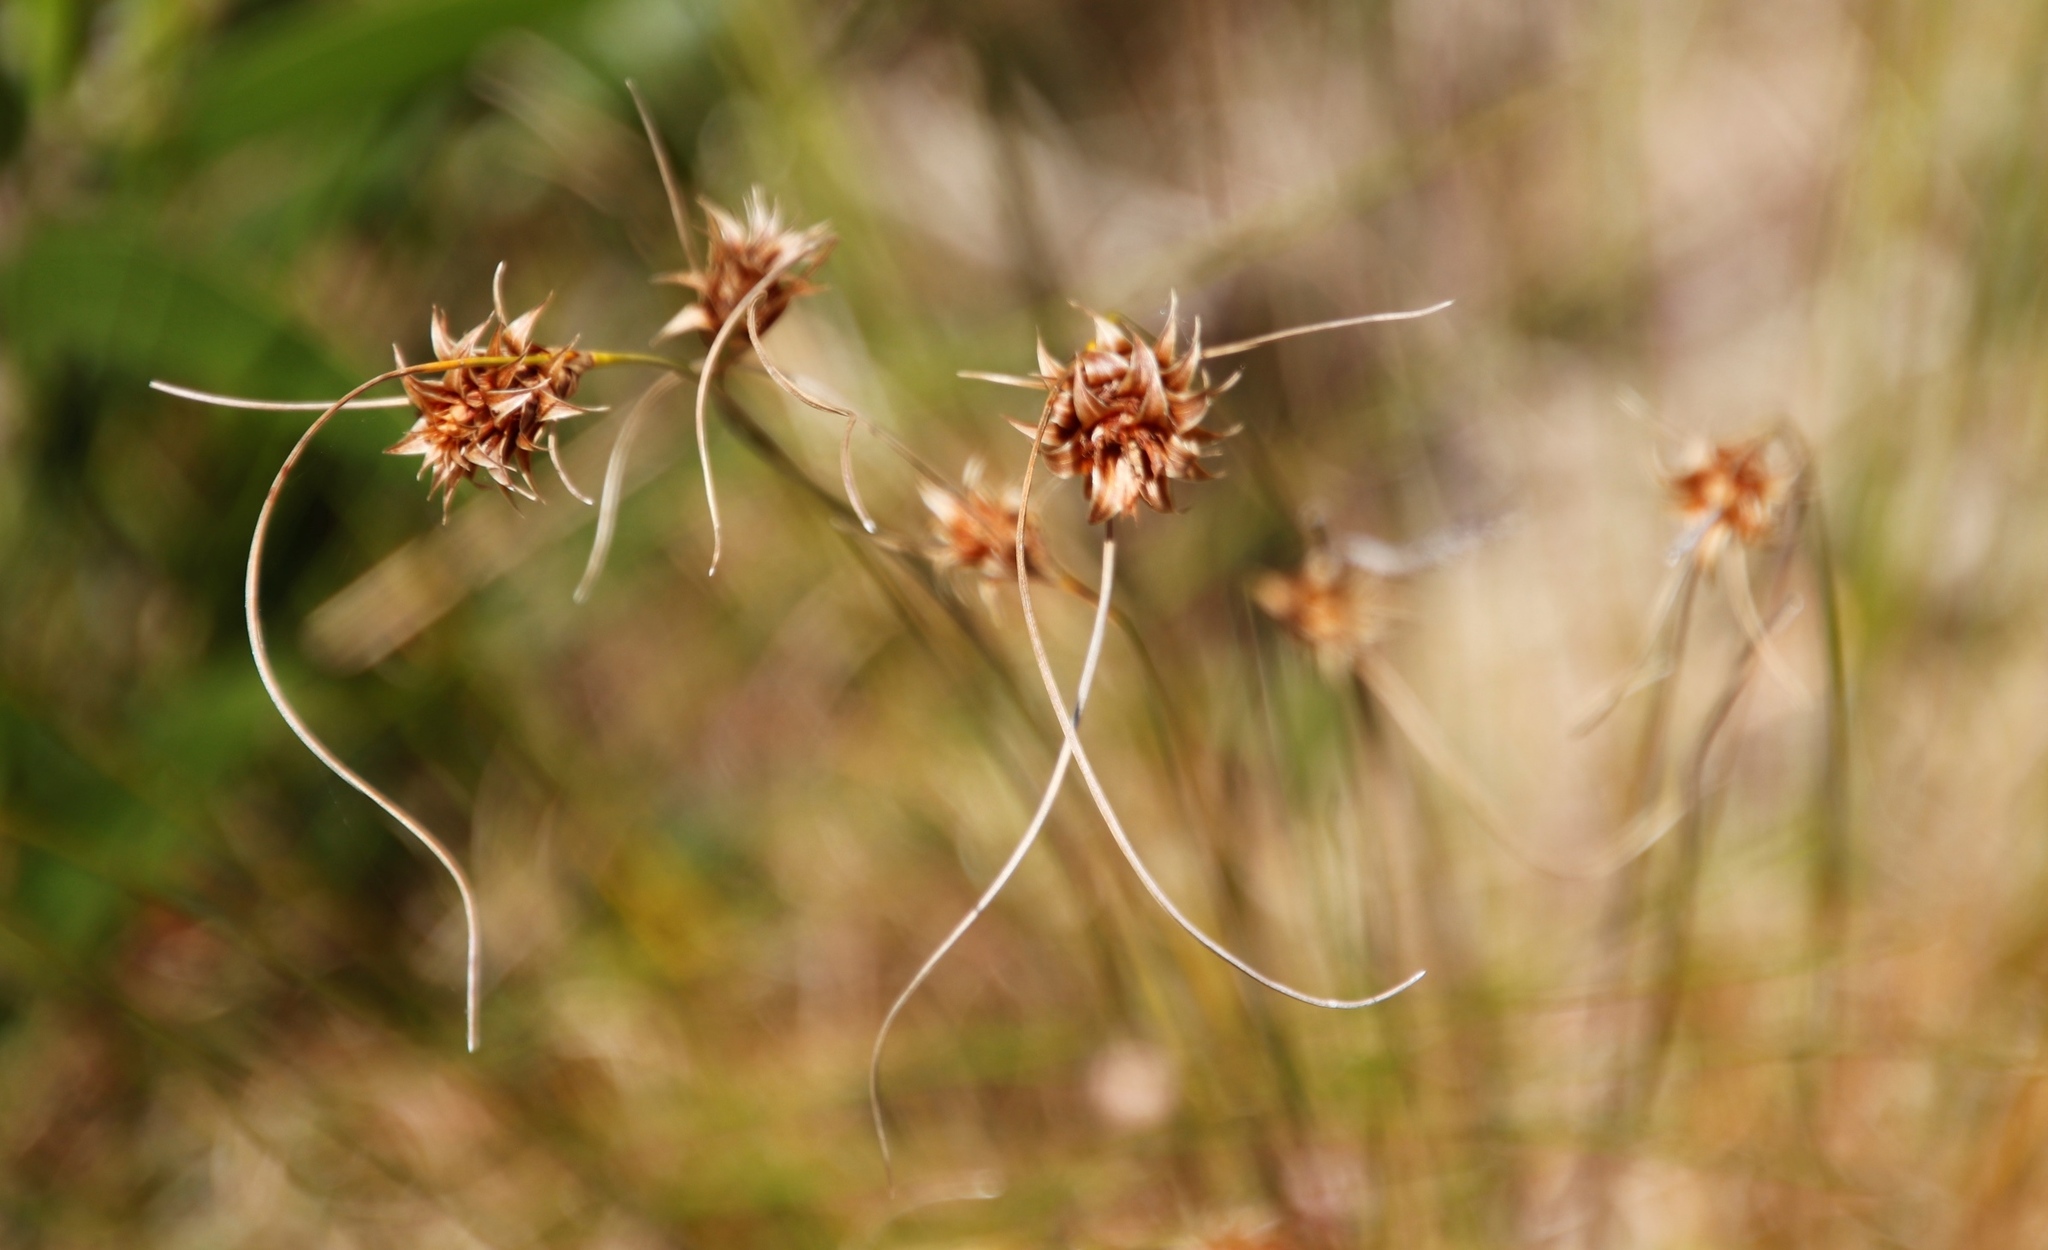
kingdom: Plantae
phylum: Tracheophyta
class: Liliopsida
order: Poales
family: Cyperaceae
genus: Ficinia
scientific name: Ficinia nigrescens
